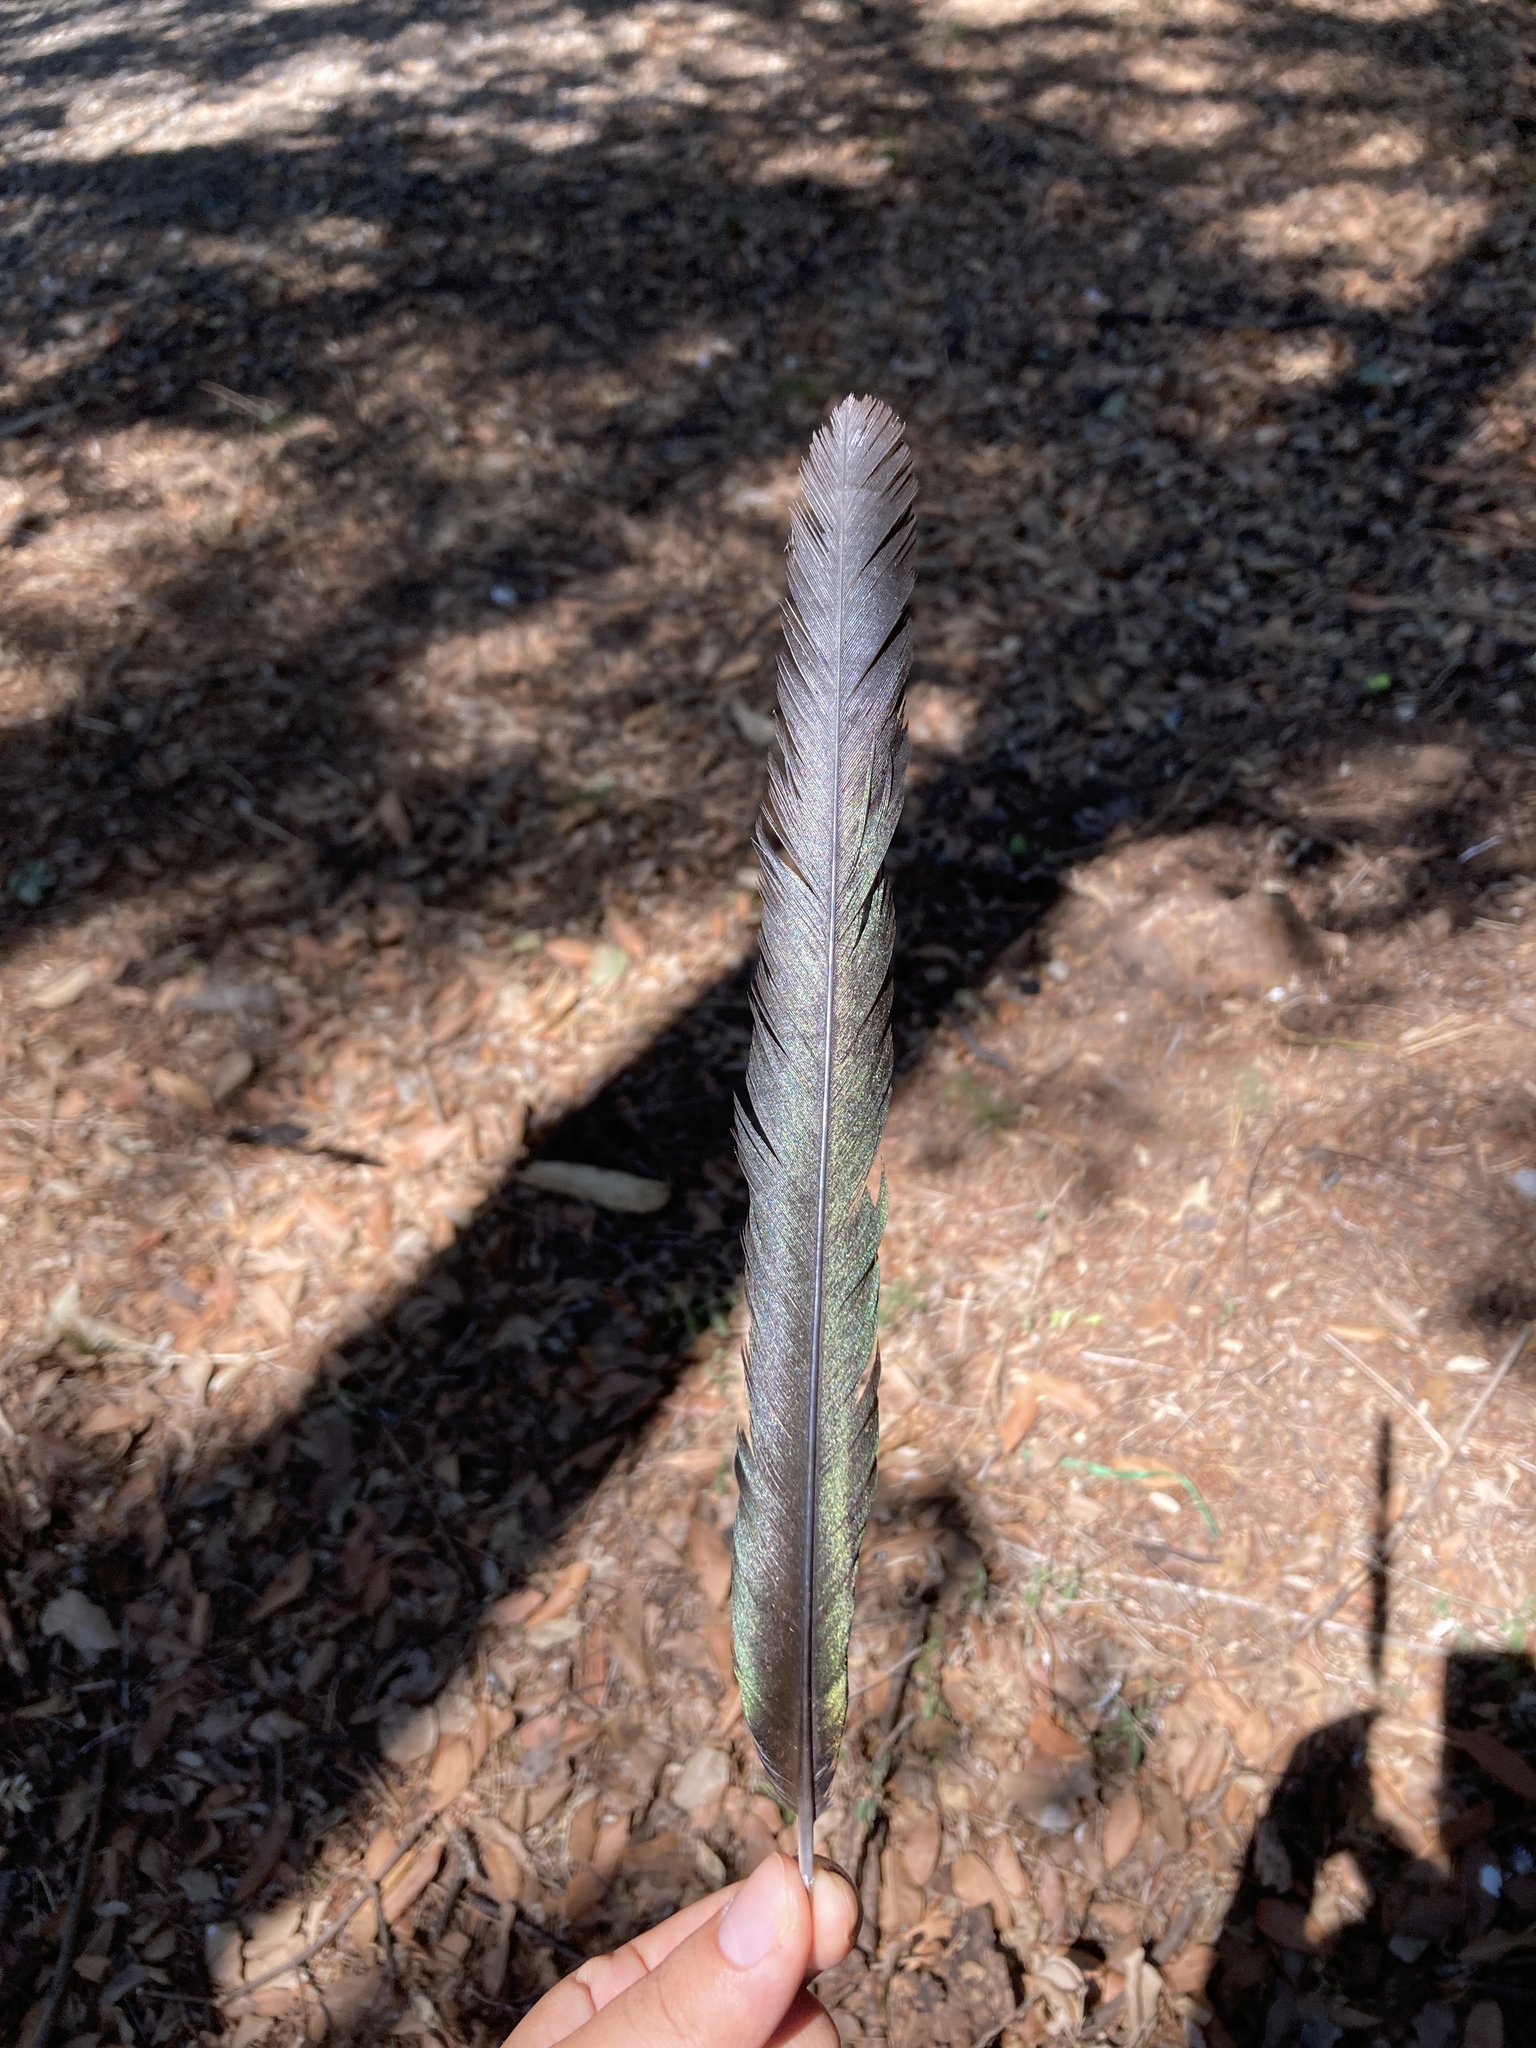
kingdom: Animalia
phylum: Chordata
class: Aves
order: Passeriformes
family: Corvidae
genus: Pica
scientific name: Pica pica
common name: Eurasian magpie
